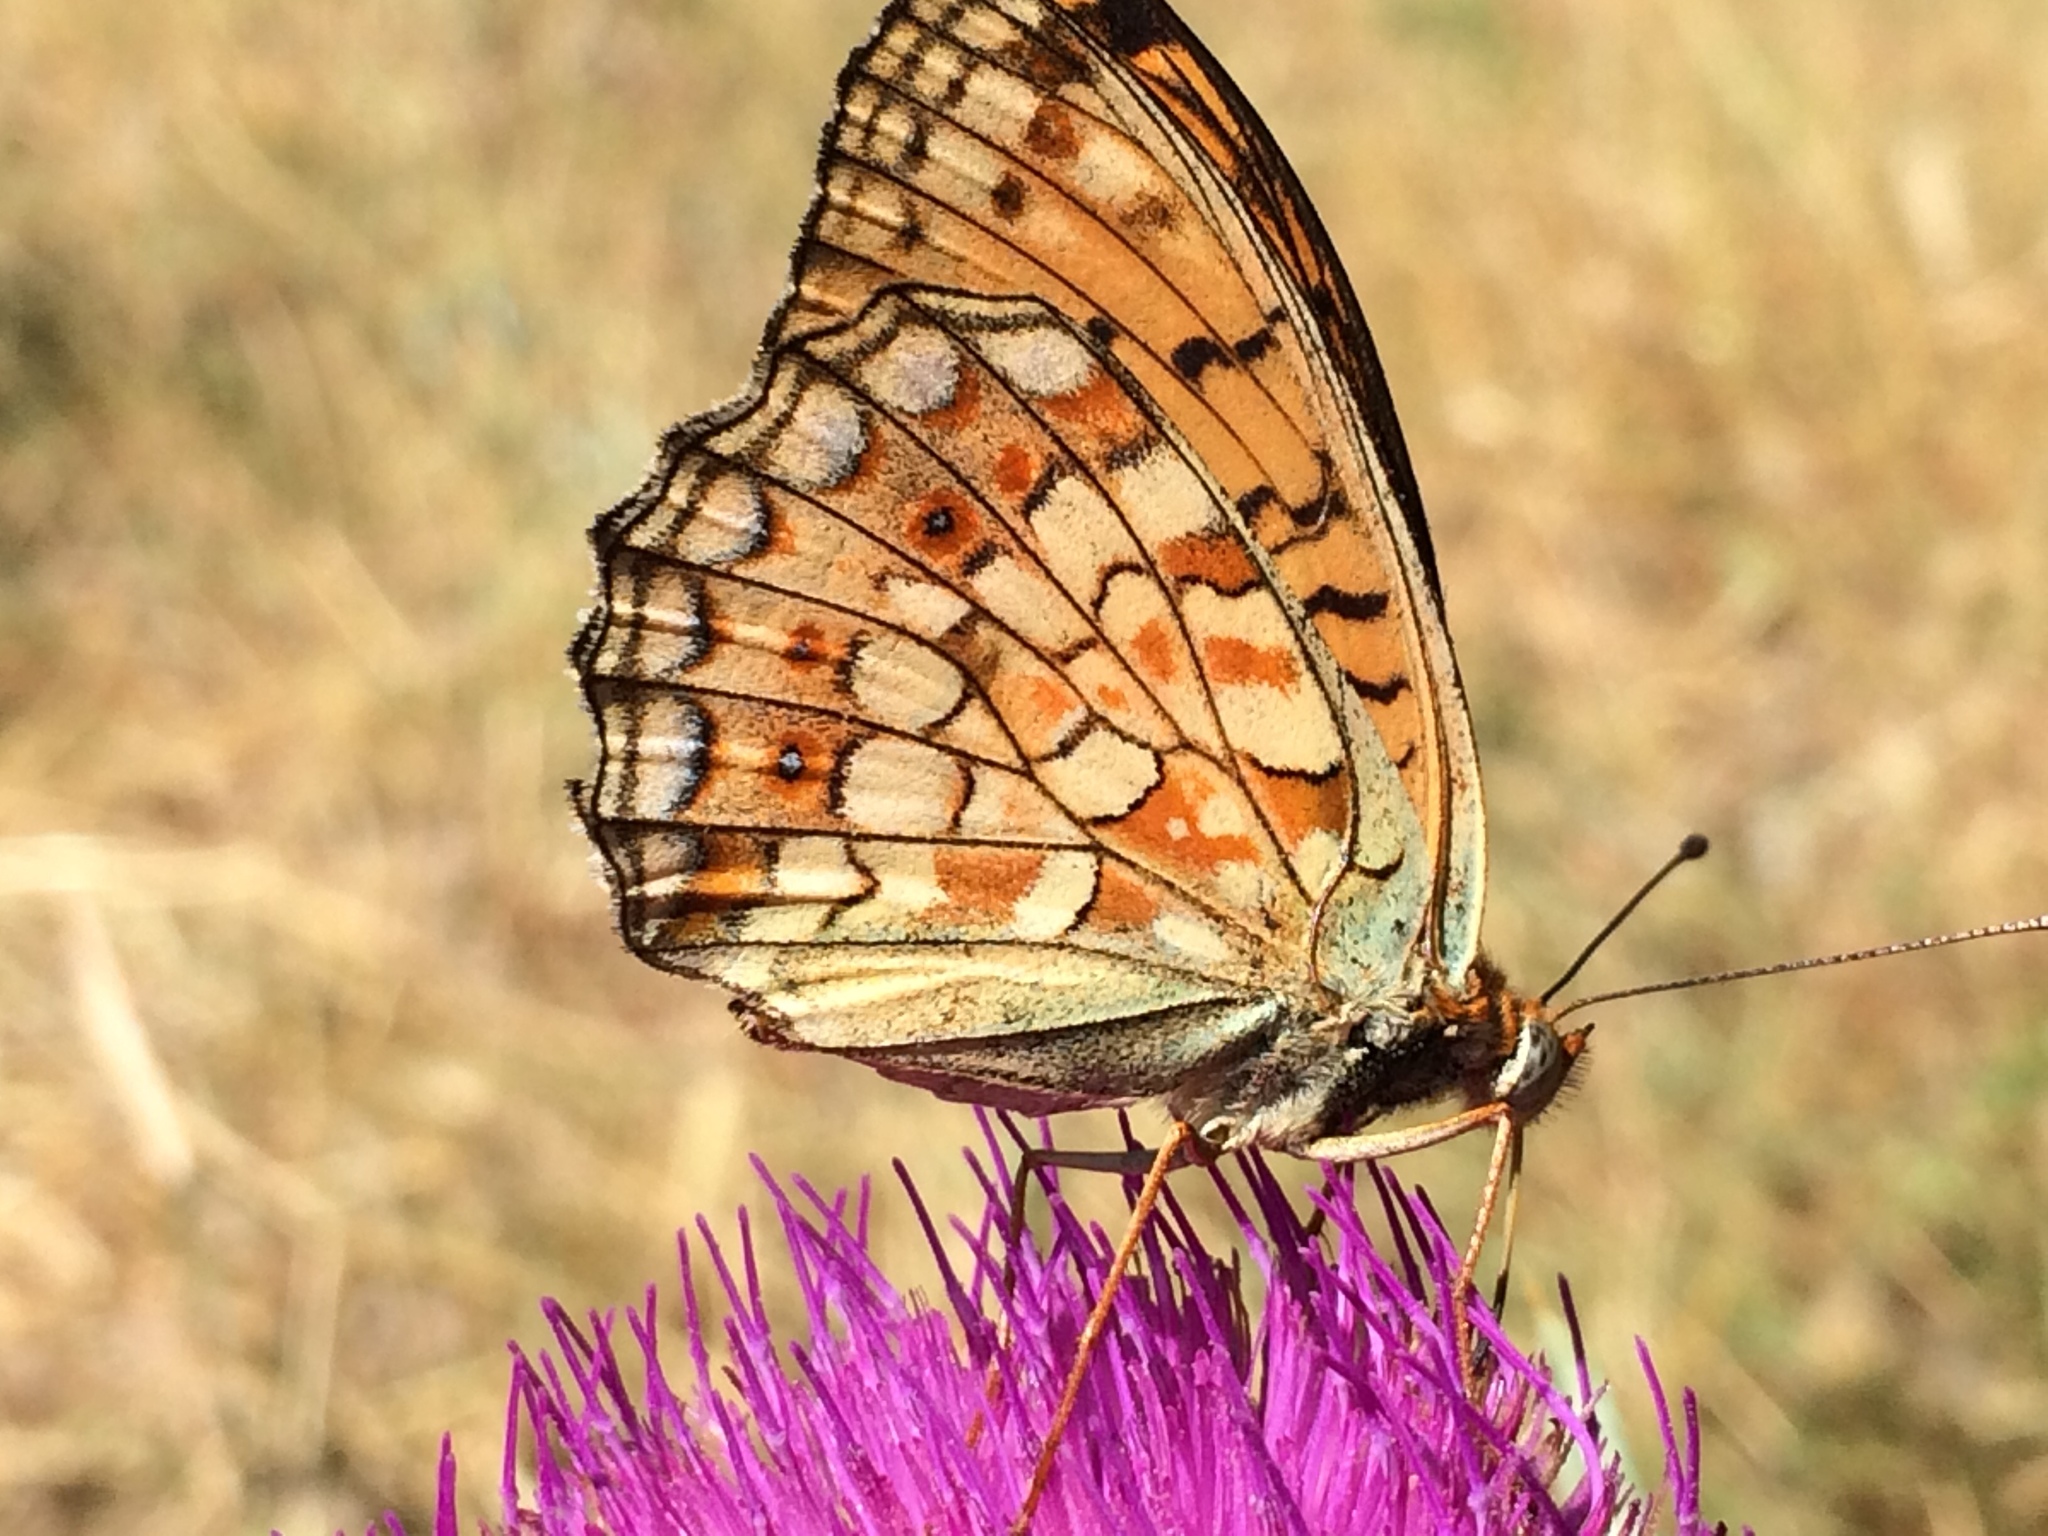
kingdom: Animalia
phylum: Arthropoda
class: Insecta
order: Lepidoptera
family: Nymphalidae
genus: Fabriciana
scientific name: Fabriciana niobe
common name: Niobe fritillary
